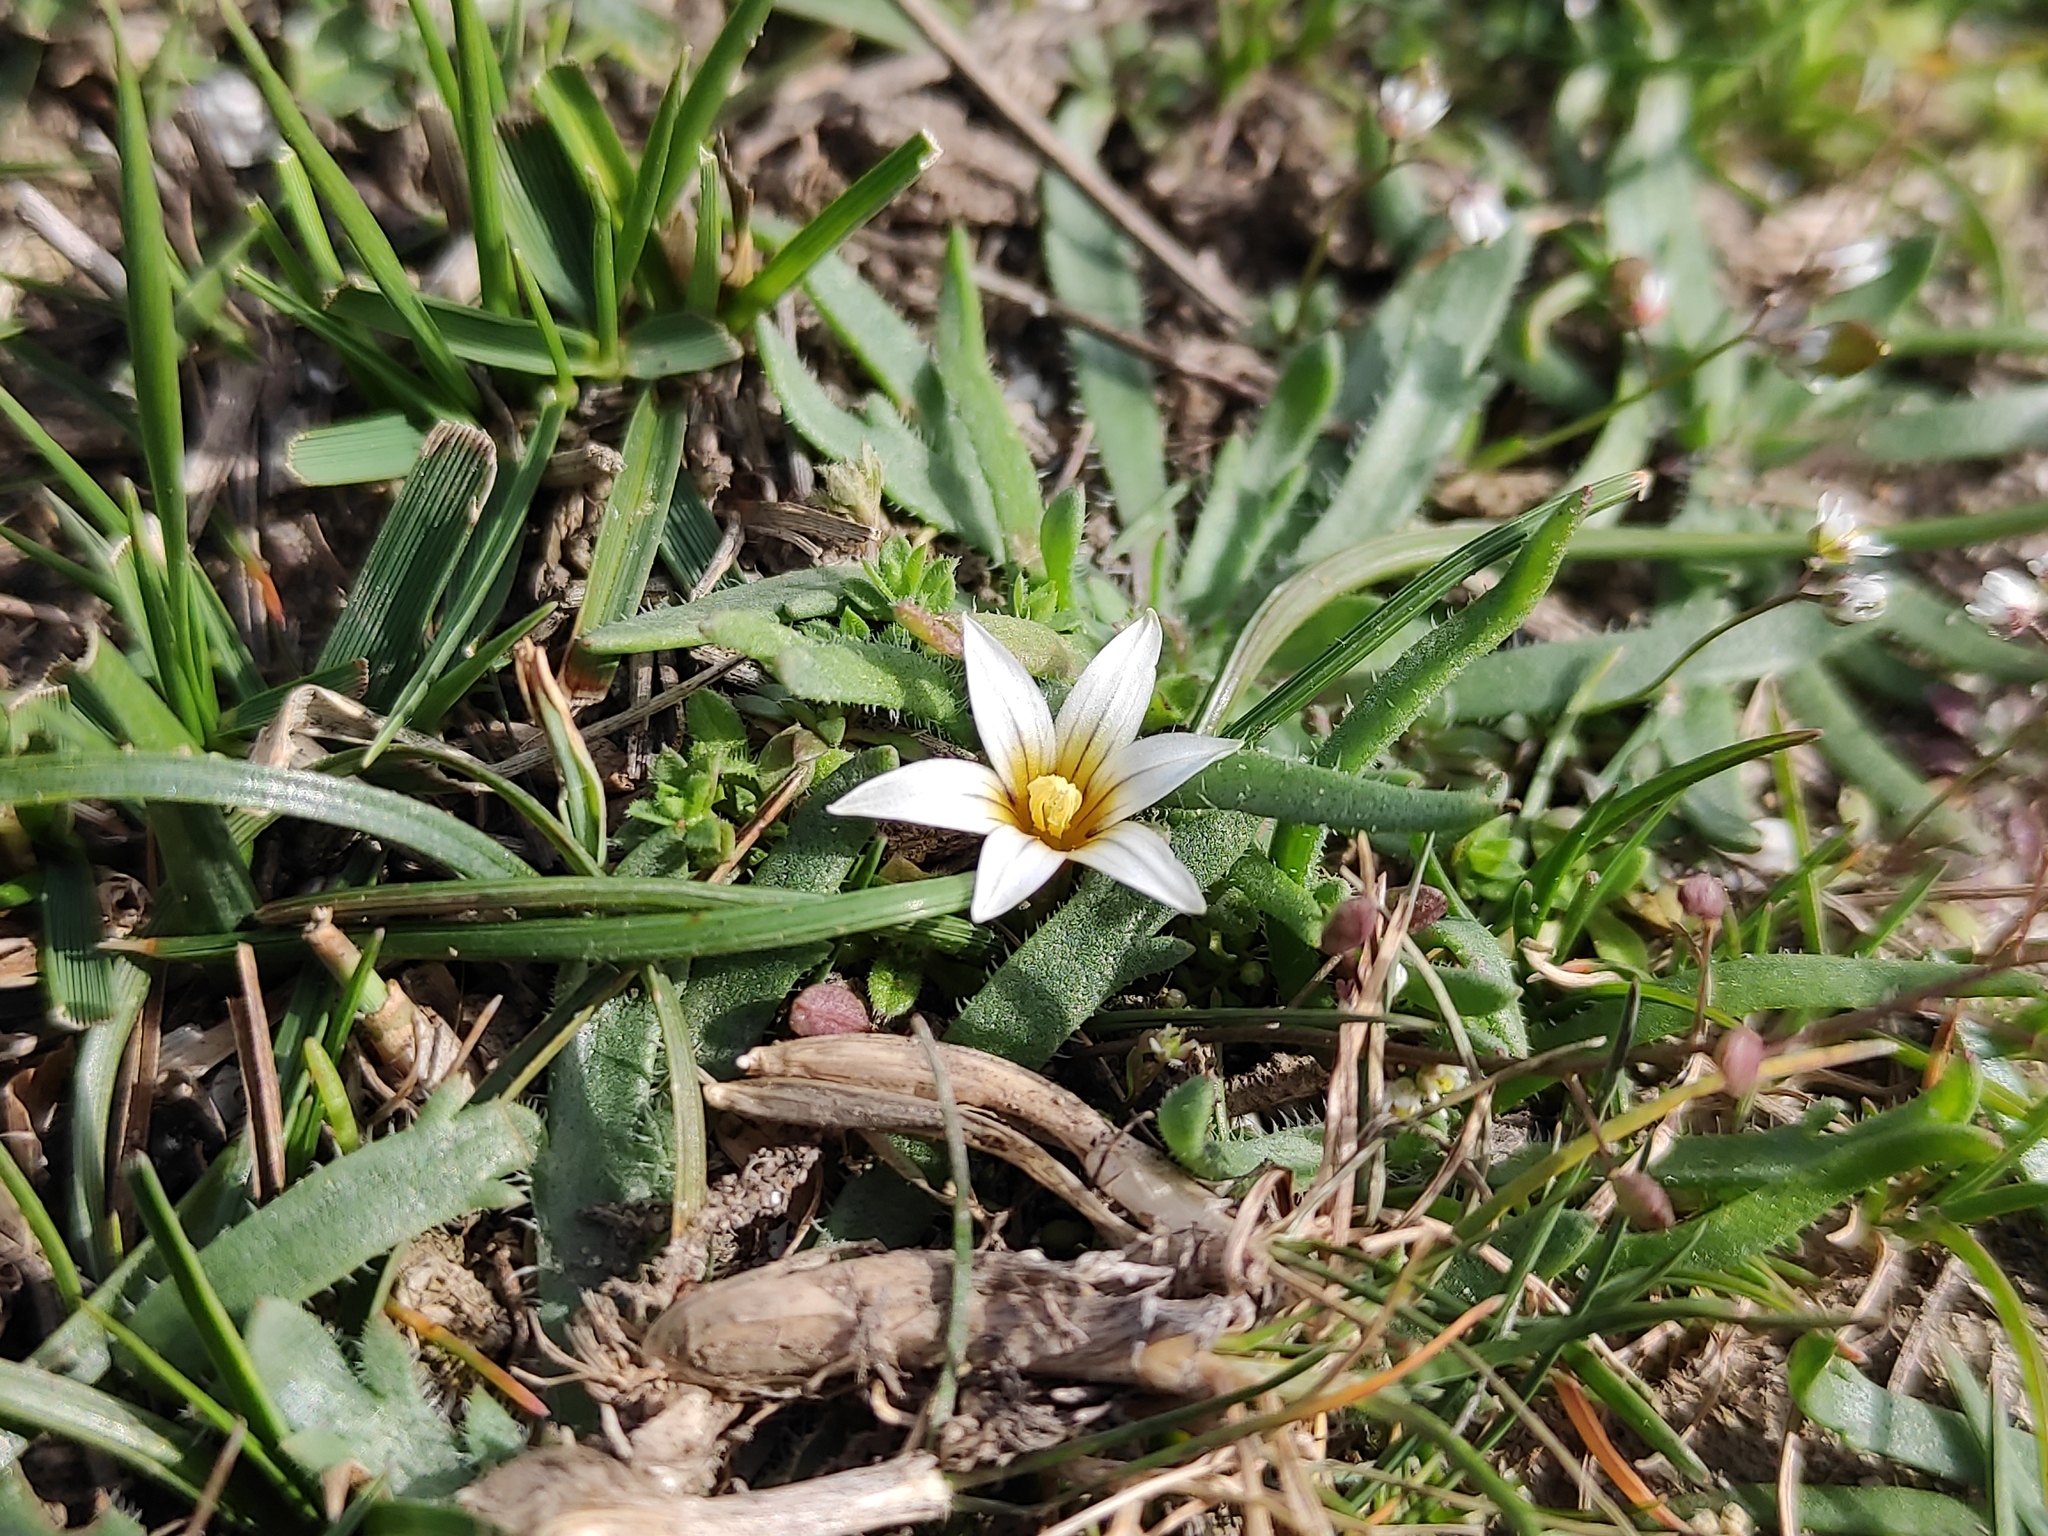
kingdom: Plantae
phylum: Tracheophyta
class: Liliopsida
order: Asparagales
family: Iridaceae
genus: Romulea
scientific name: Romulea columnae
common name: Sand-crocus
